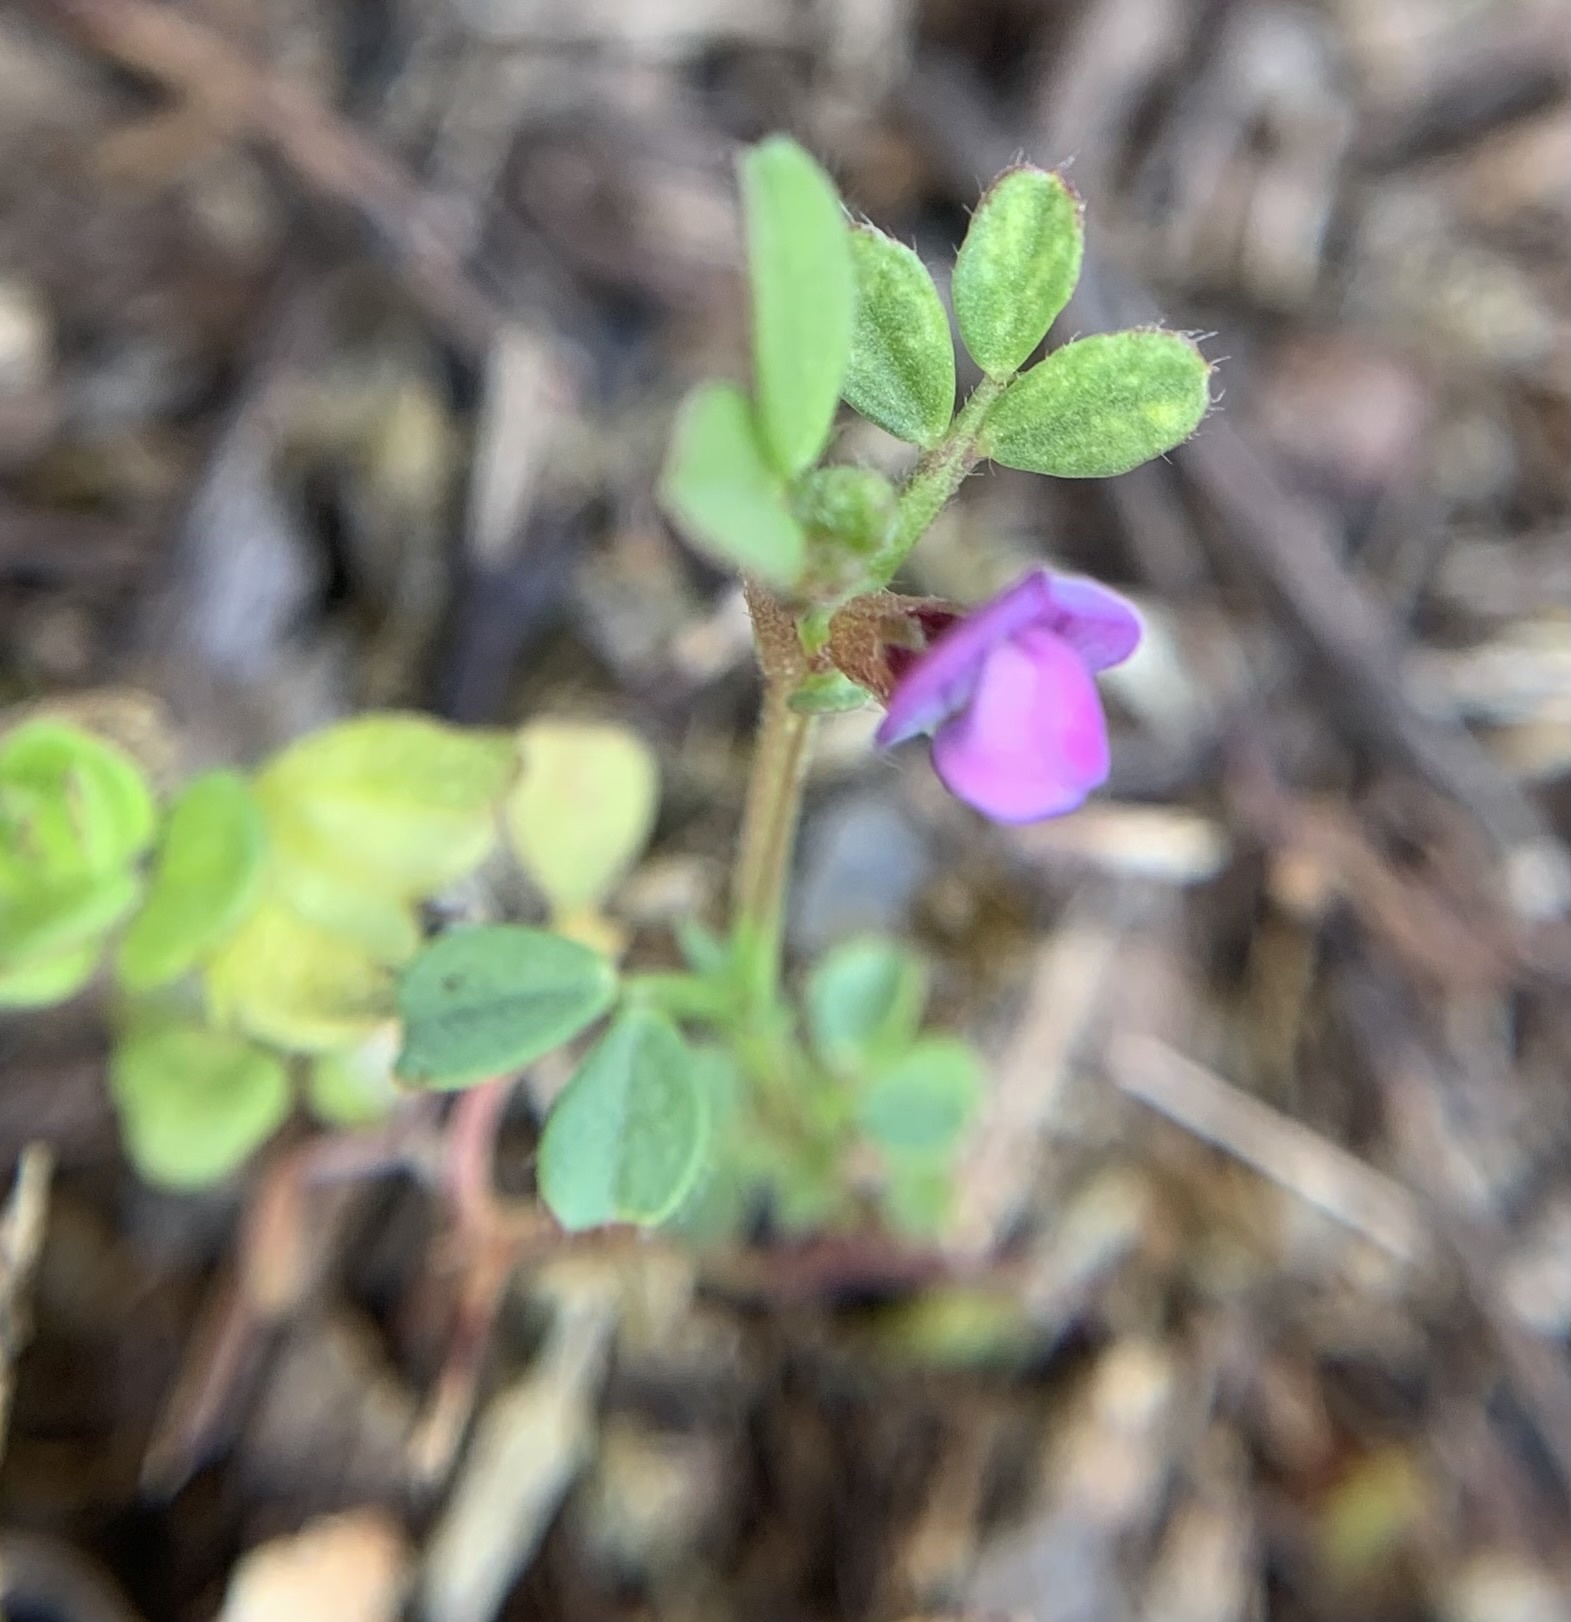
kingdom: Plantae
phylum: Tracheophyta
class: Magnoliopsida
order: Fabales
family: Fabaceae
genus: Vicia
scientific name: Vicia lathyroides
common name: Spring vetch
